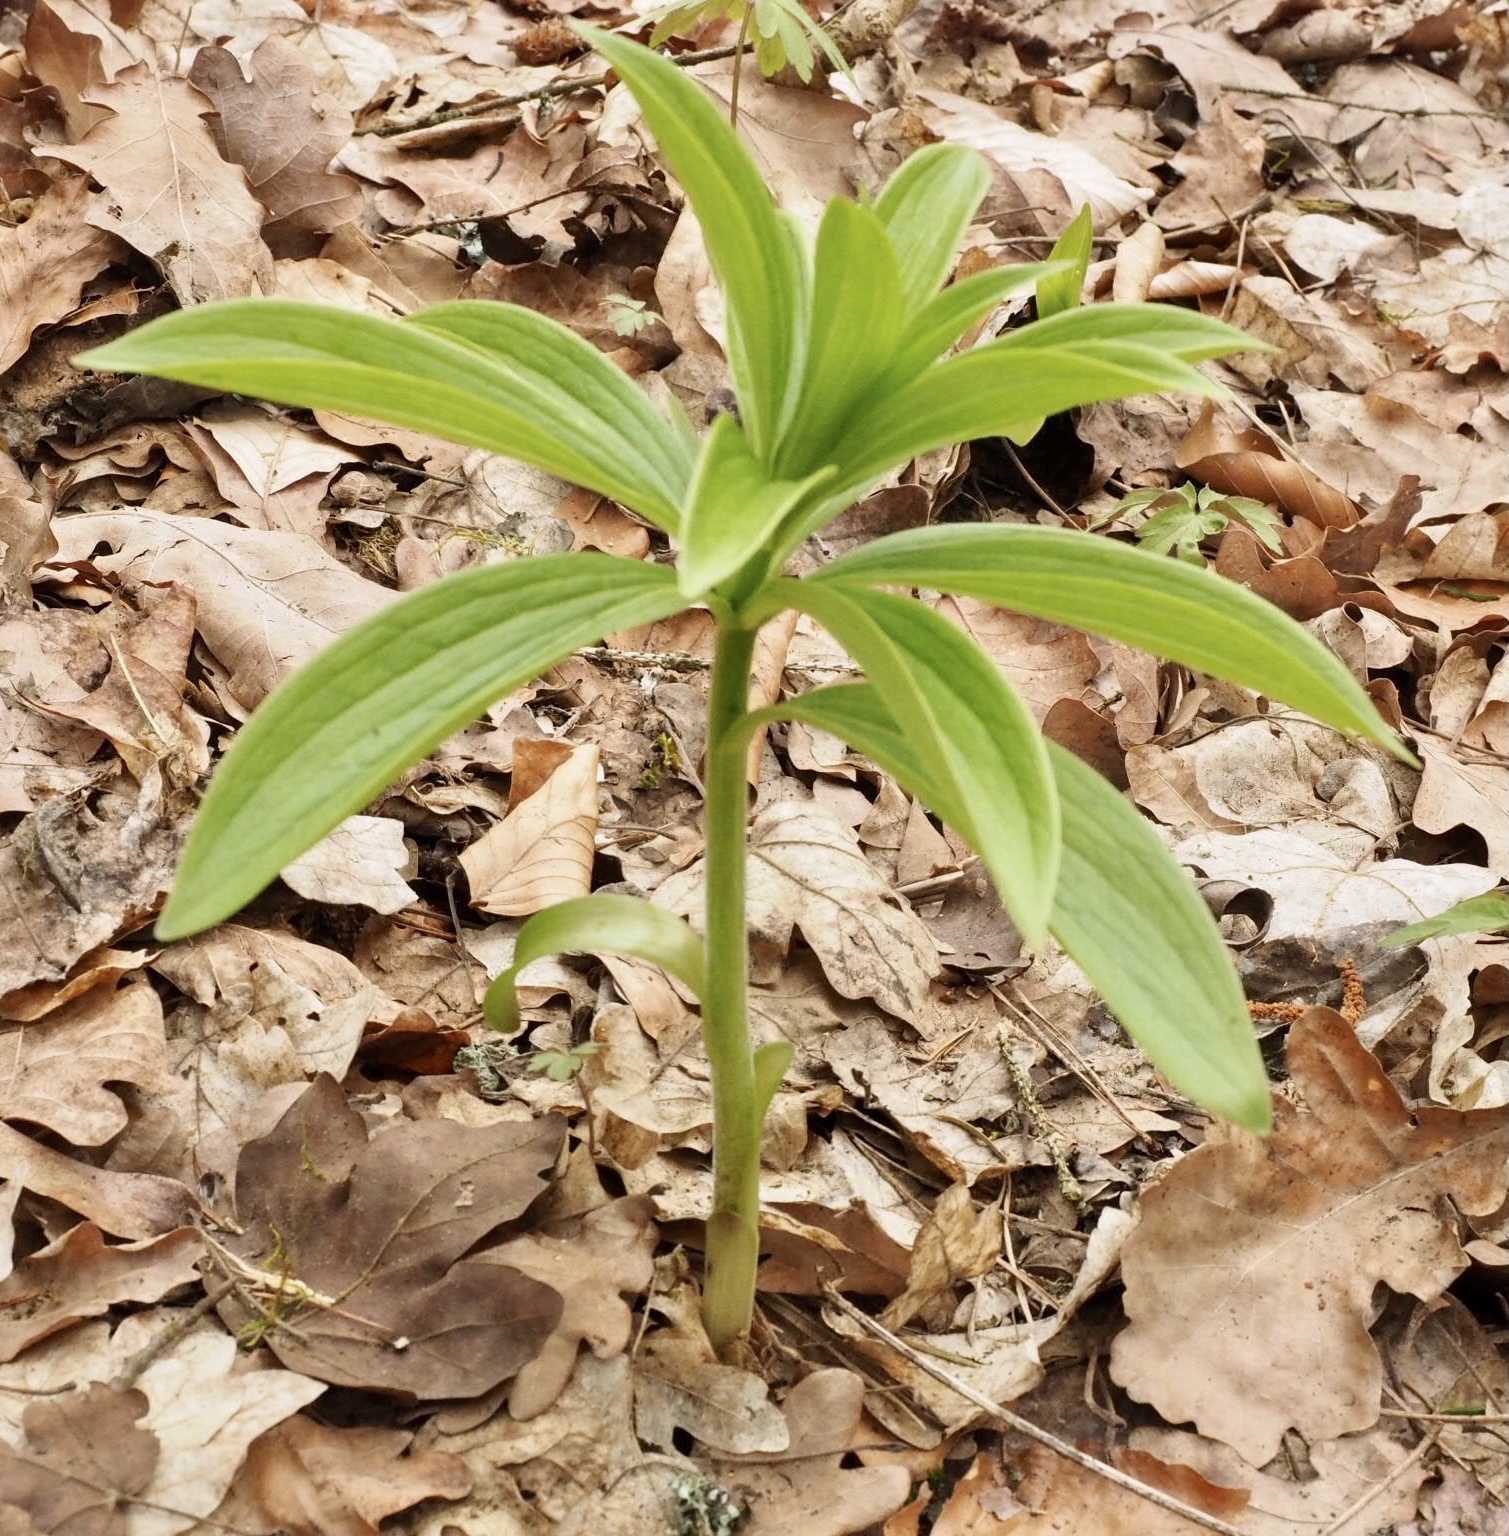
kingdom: Plantae
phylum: Tracheophyta
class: Liliopsida
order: Liliales
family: Liliaceae
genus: Lilium
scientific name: Lilium martagon
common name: Martagon lily
